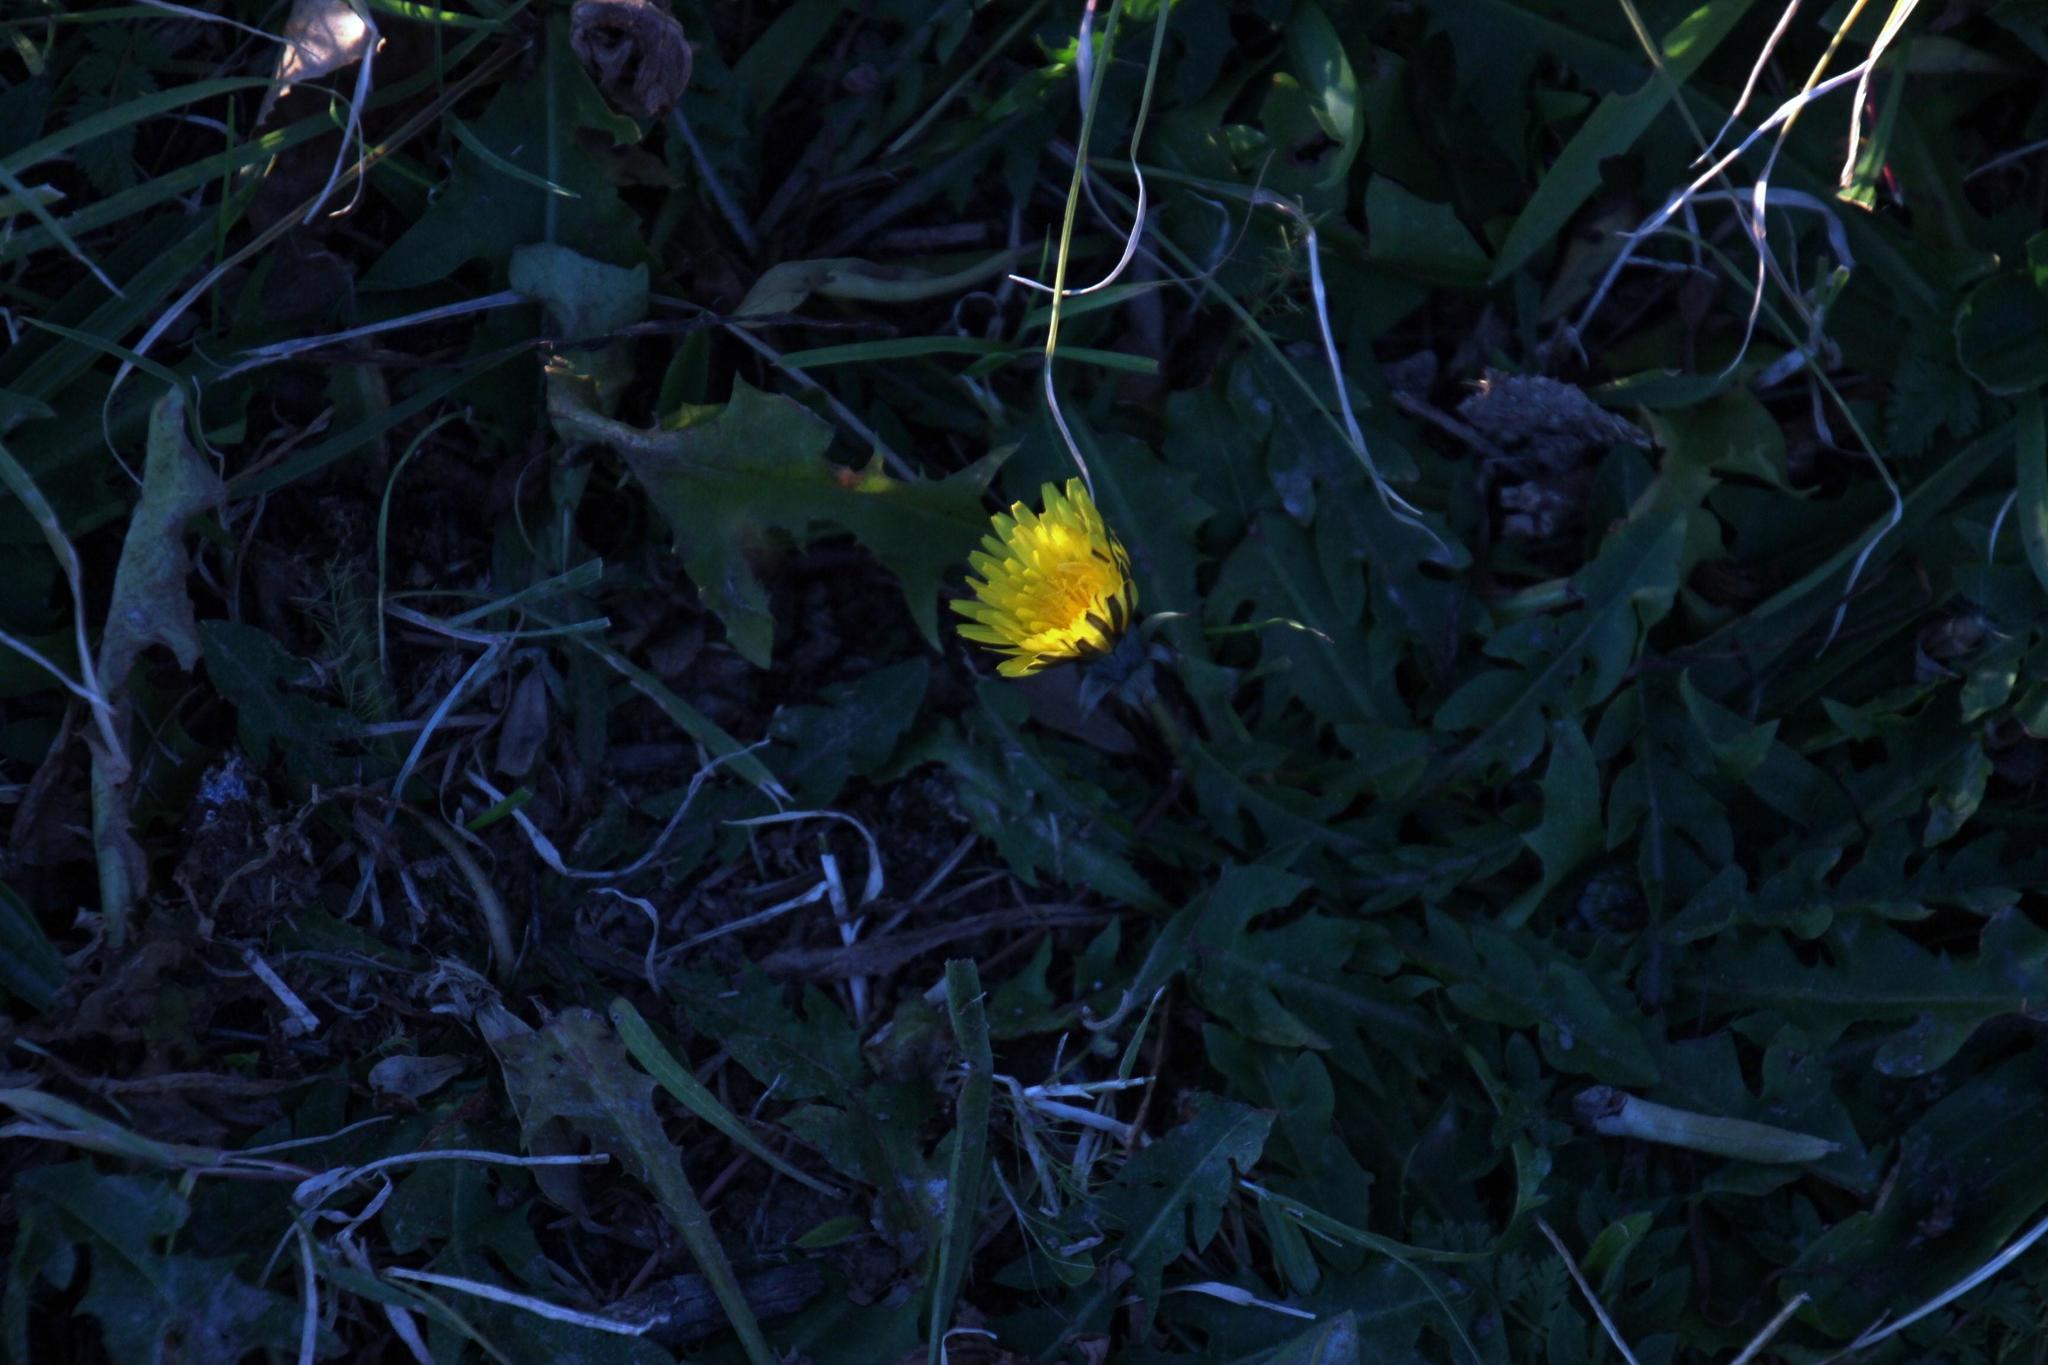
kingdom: Plantae
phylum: Tracheophyta
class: Magnoliopsida
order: Asterales
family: Asteraceae
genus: Taraxacum
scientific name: Taraxacum officinale
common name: Common dandelion
